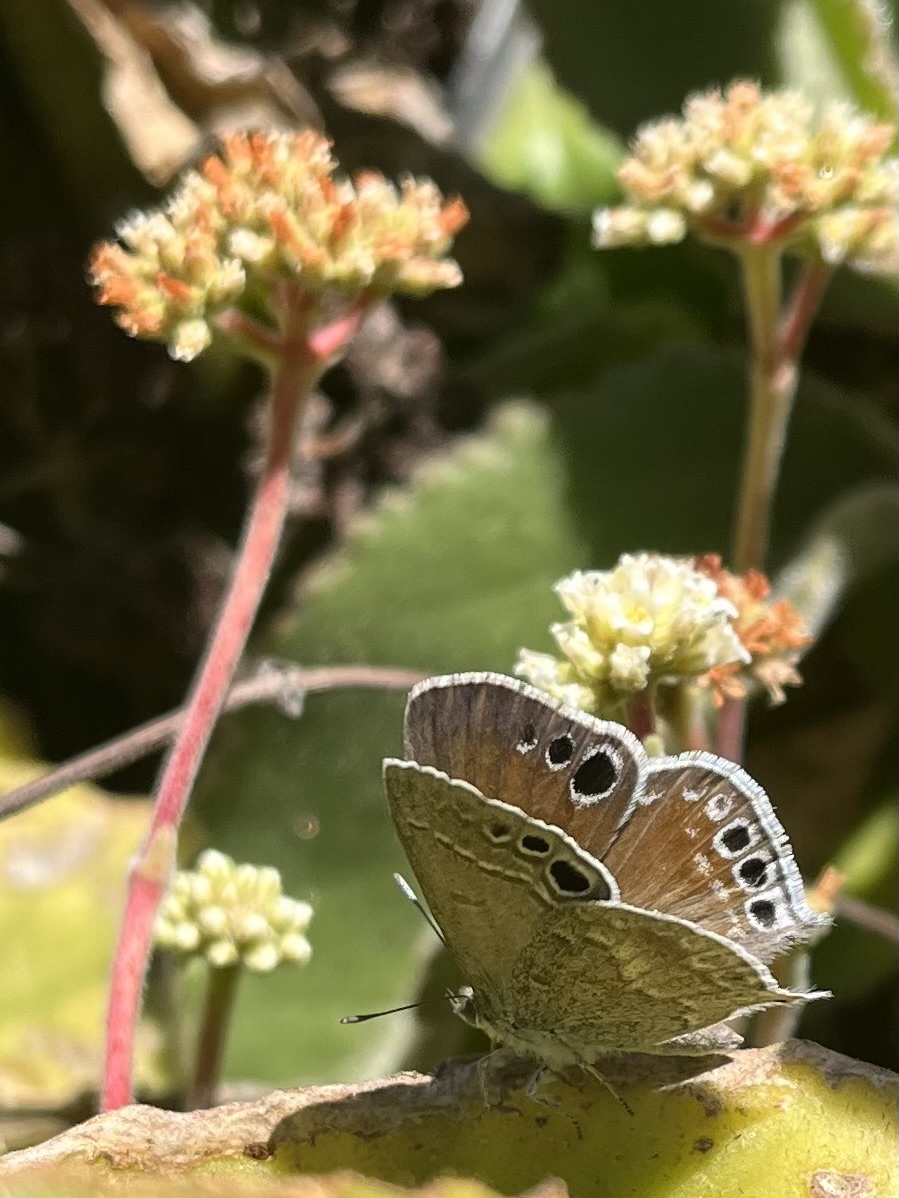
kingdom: Animalia
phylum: Arthropoda
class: Insecta
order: Lepidoptera
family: Lycaenidae
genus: Leptomyrina
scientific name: Leptomyrina gorgias
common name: Common black-eye
